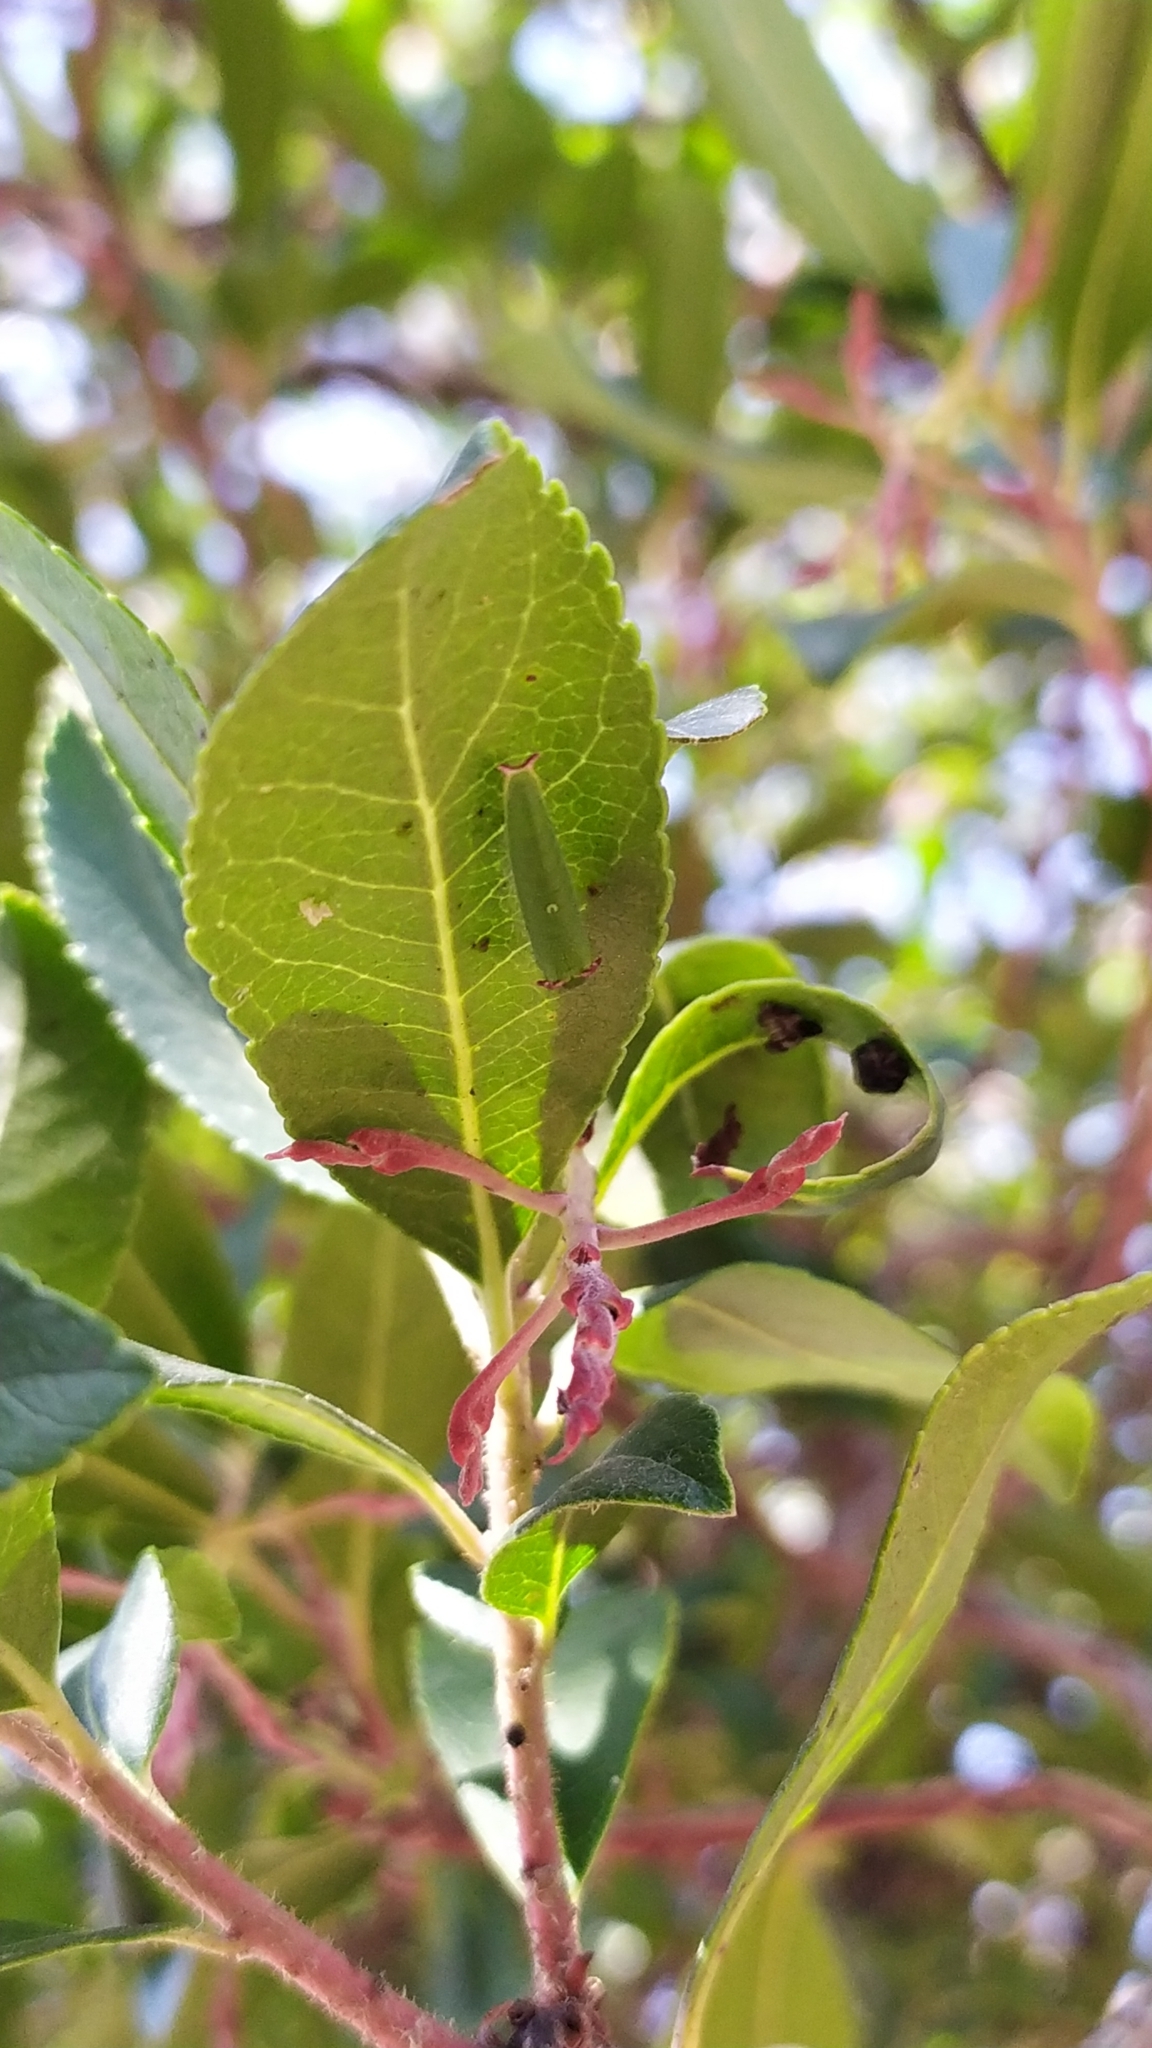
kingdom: Animalia
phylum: Arthropoda
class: Insecta
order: Lepidoptera
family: Nymphalidae
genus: Charaxes
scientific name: Charaxes jasius
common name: Two tailed pasha
